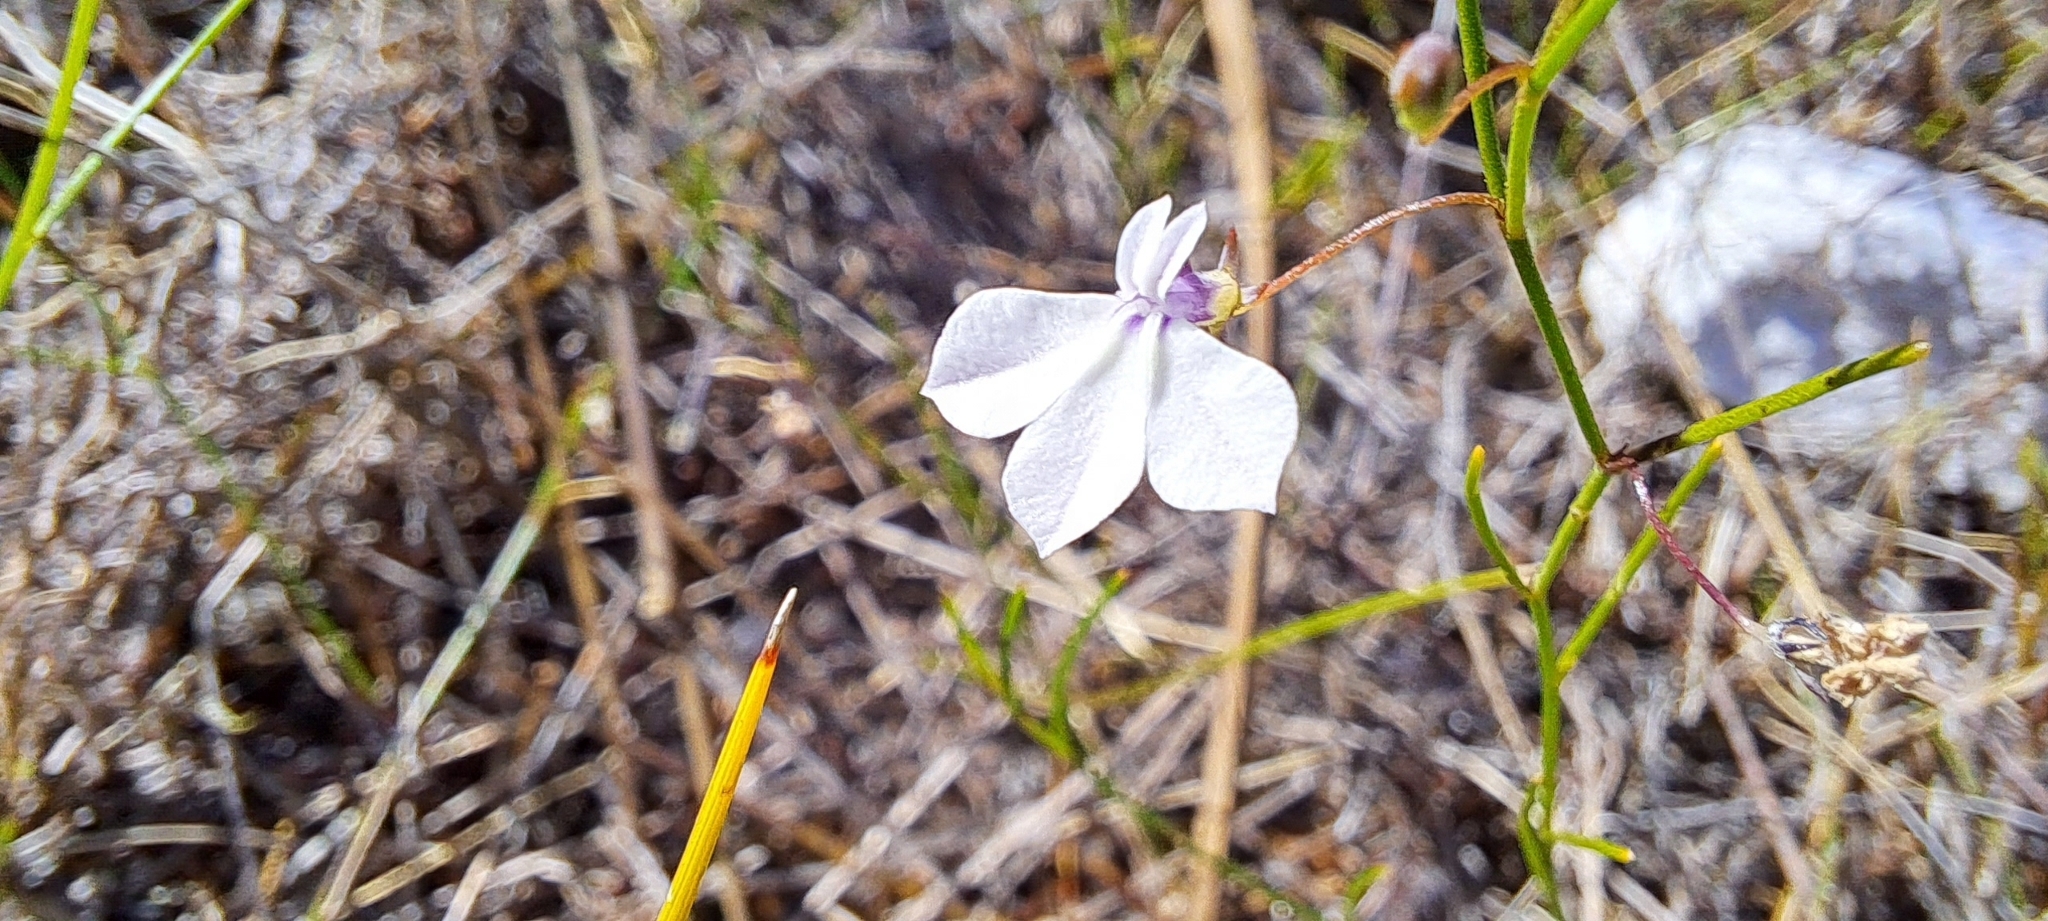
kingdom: Plantae
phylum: Tracheophyta
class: Magnoliopsida
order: Asterales
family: Campanulaceae
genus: Lobelia
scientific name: Lobelia setacea
